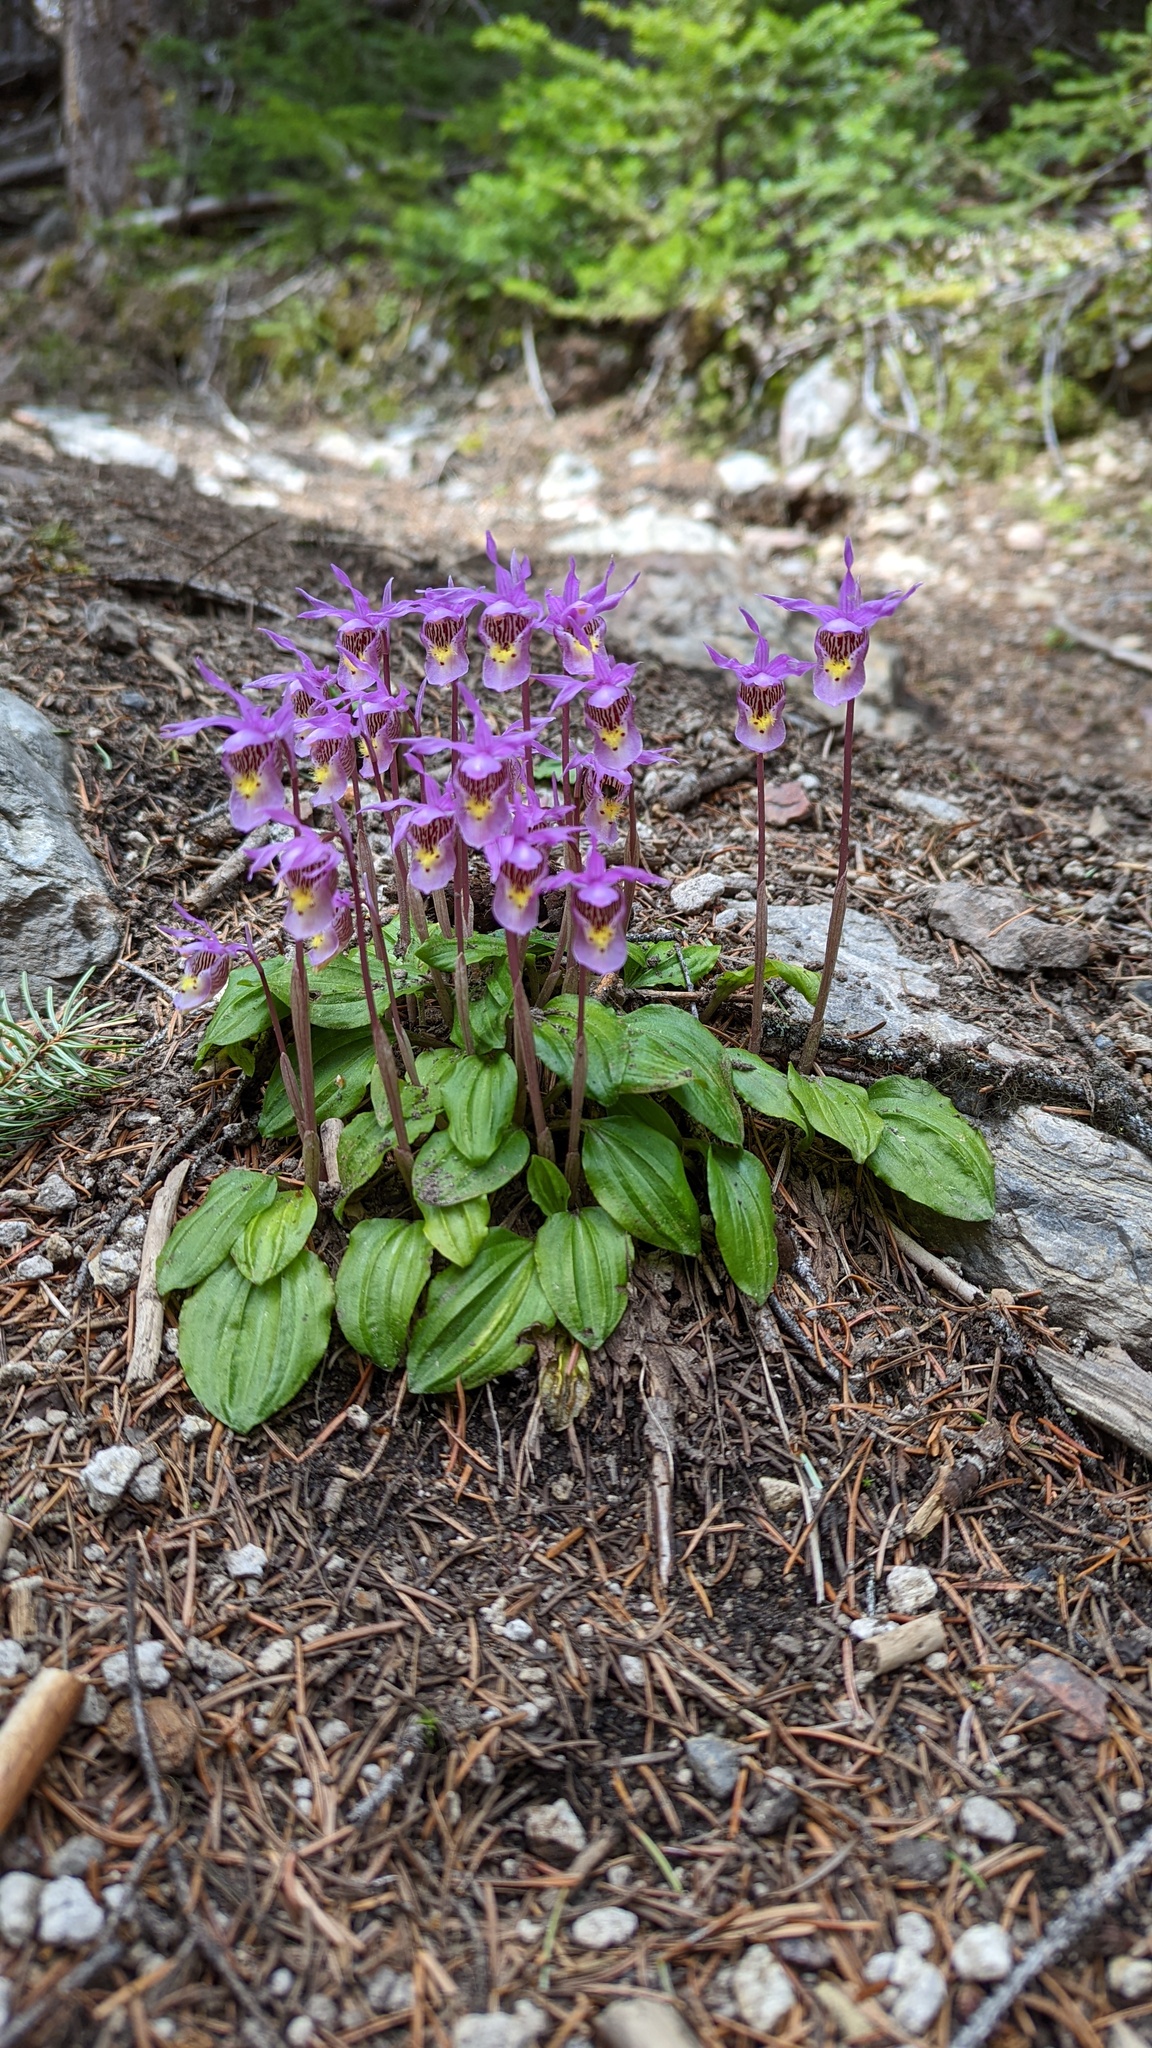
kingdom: Plantae
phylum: Tracheophyta
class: Liliopsida
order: Asparagales
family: Orchidaceae
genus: Calypso
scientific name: Calypso bulbosa
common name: Calypso
